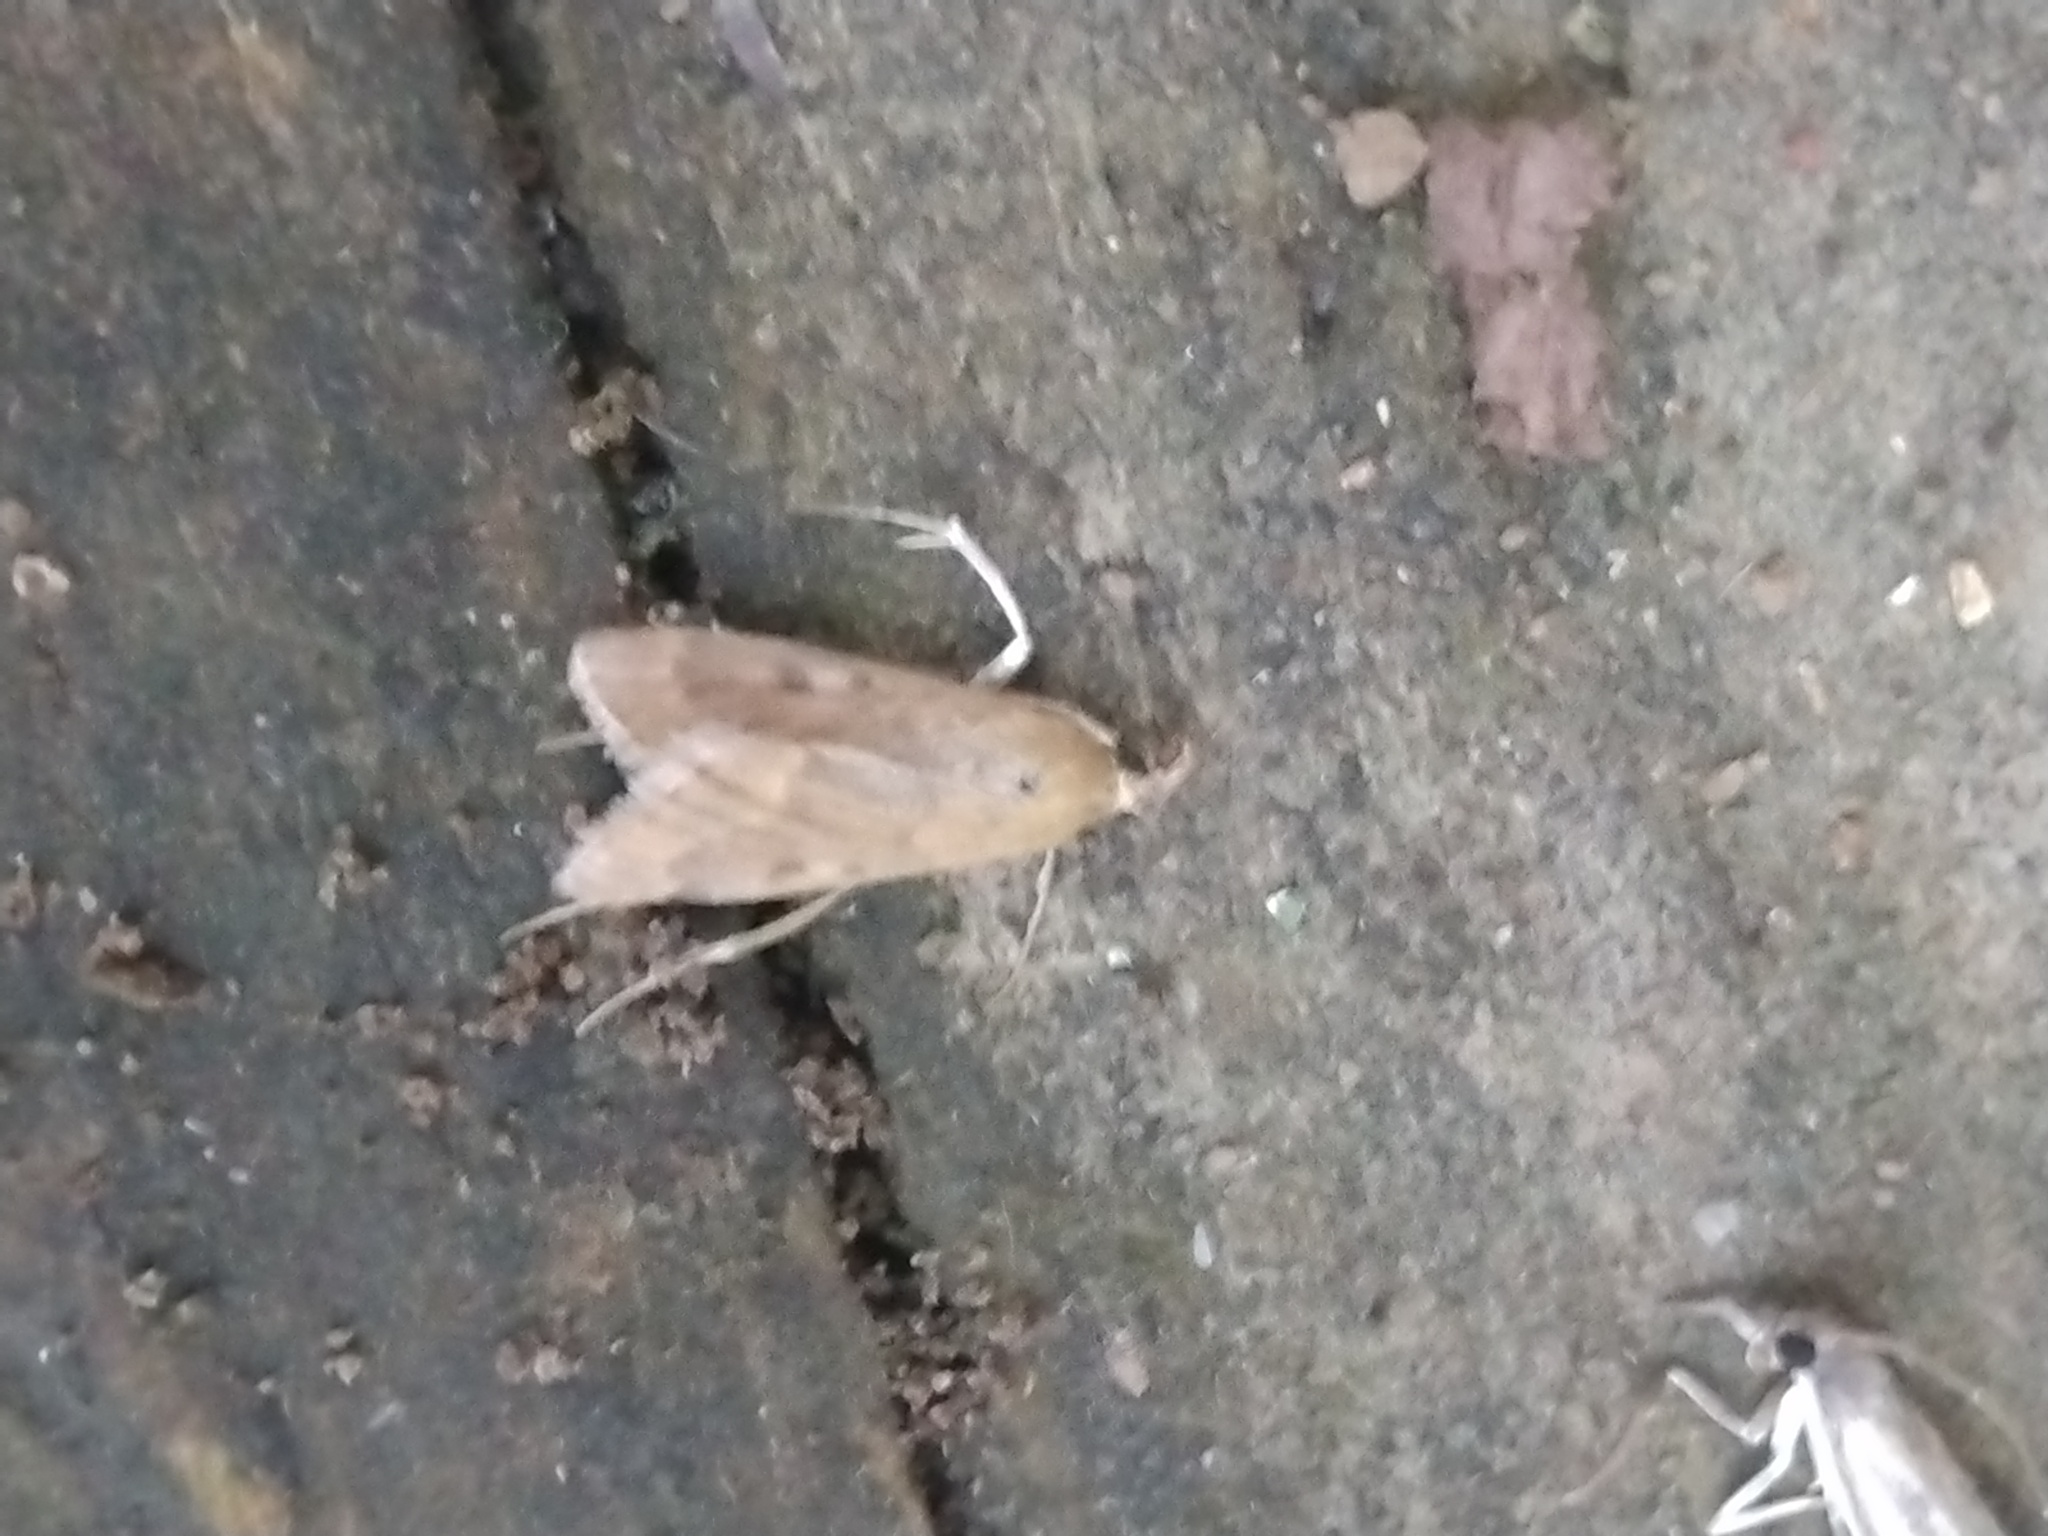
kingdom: Animalia
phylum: Arthropoda
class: Insecta
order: Lepidoptera
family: Crambidae
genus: Achyra
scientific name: Achyra rantalis
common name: Garden webworm
